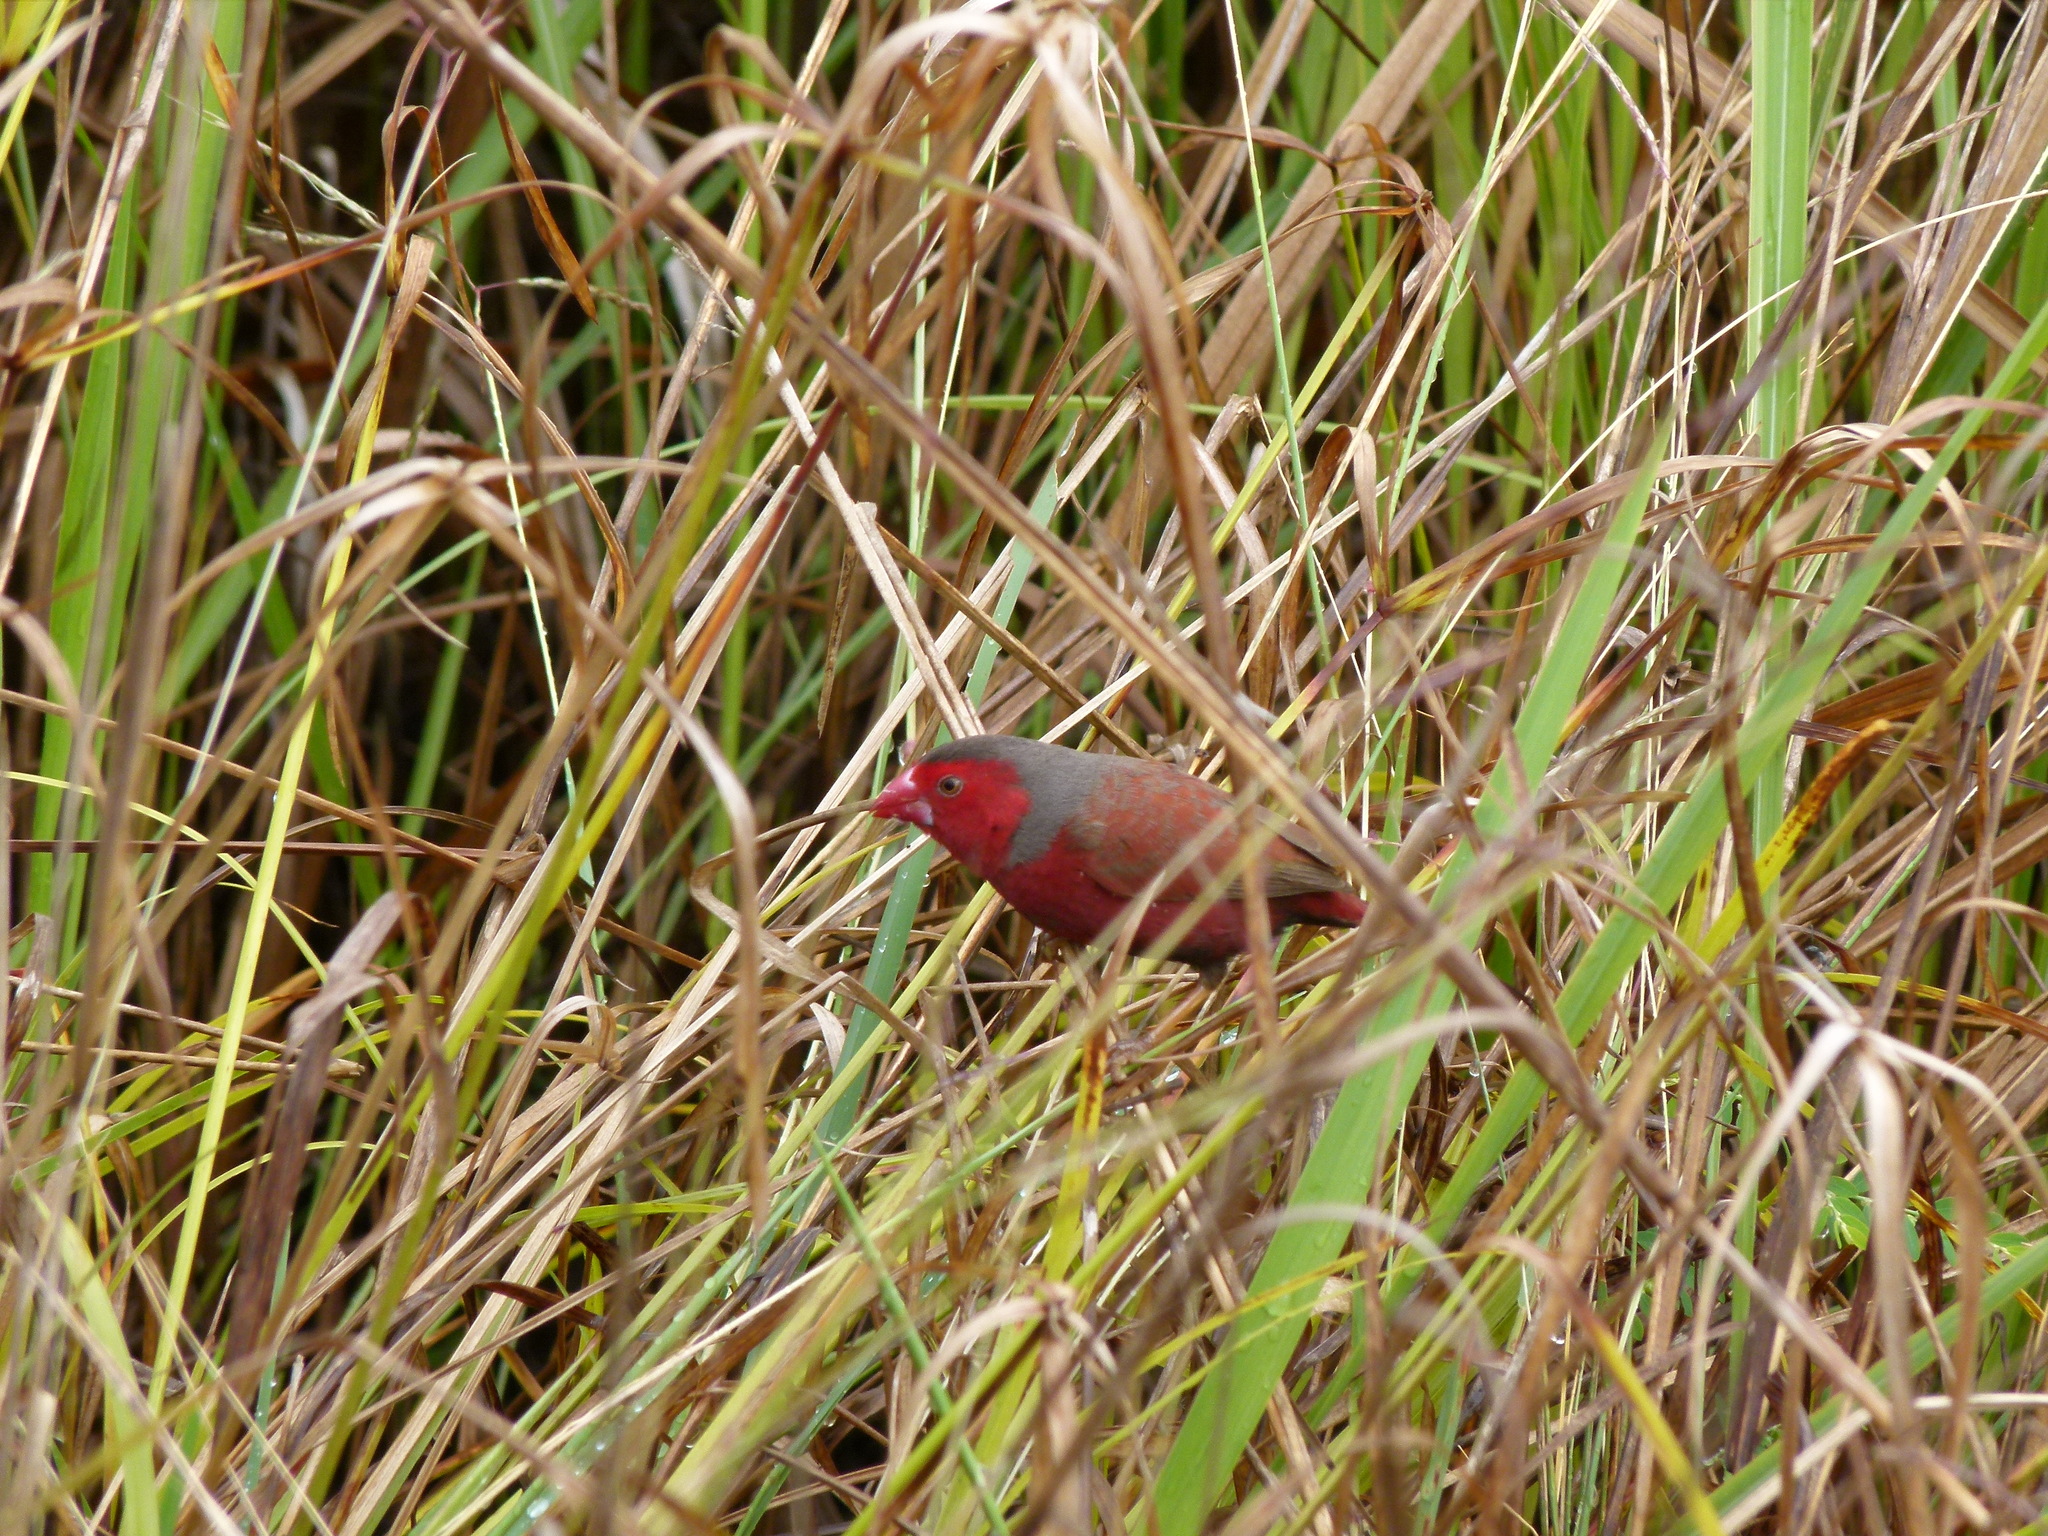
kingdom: Animalia
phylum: Chordata
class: Aves
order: Passeriformes
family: Estrildidae
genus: Neochmia
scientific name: Neochmia phaeton
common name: Crimson finch
